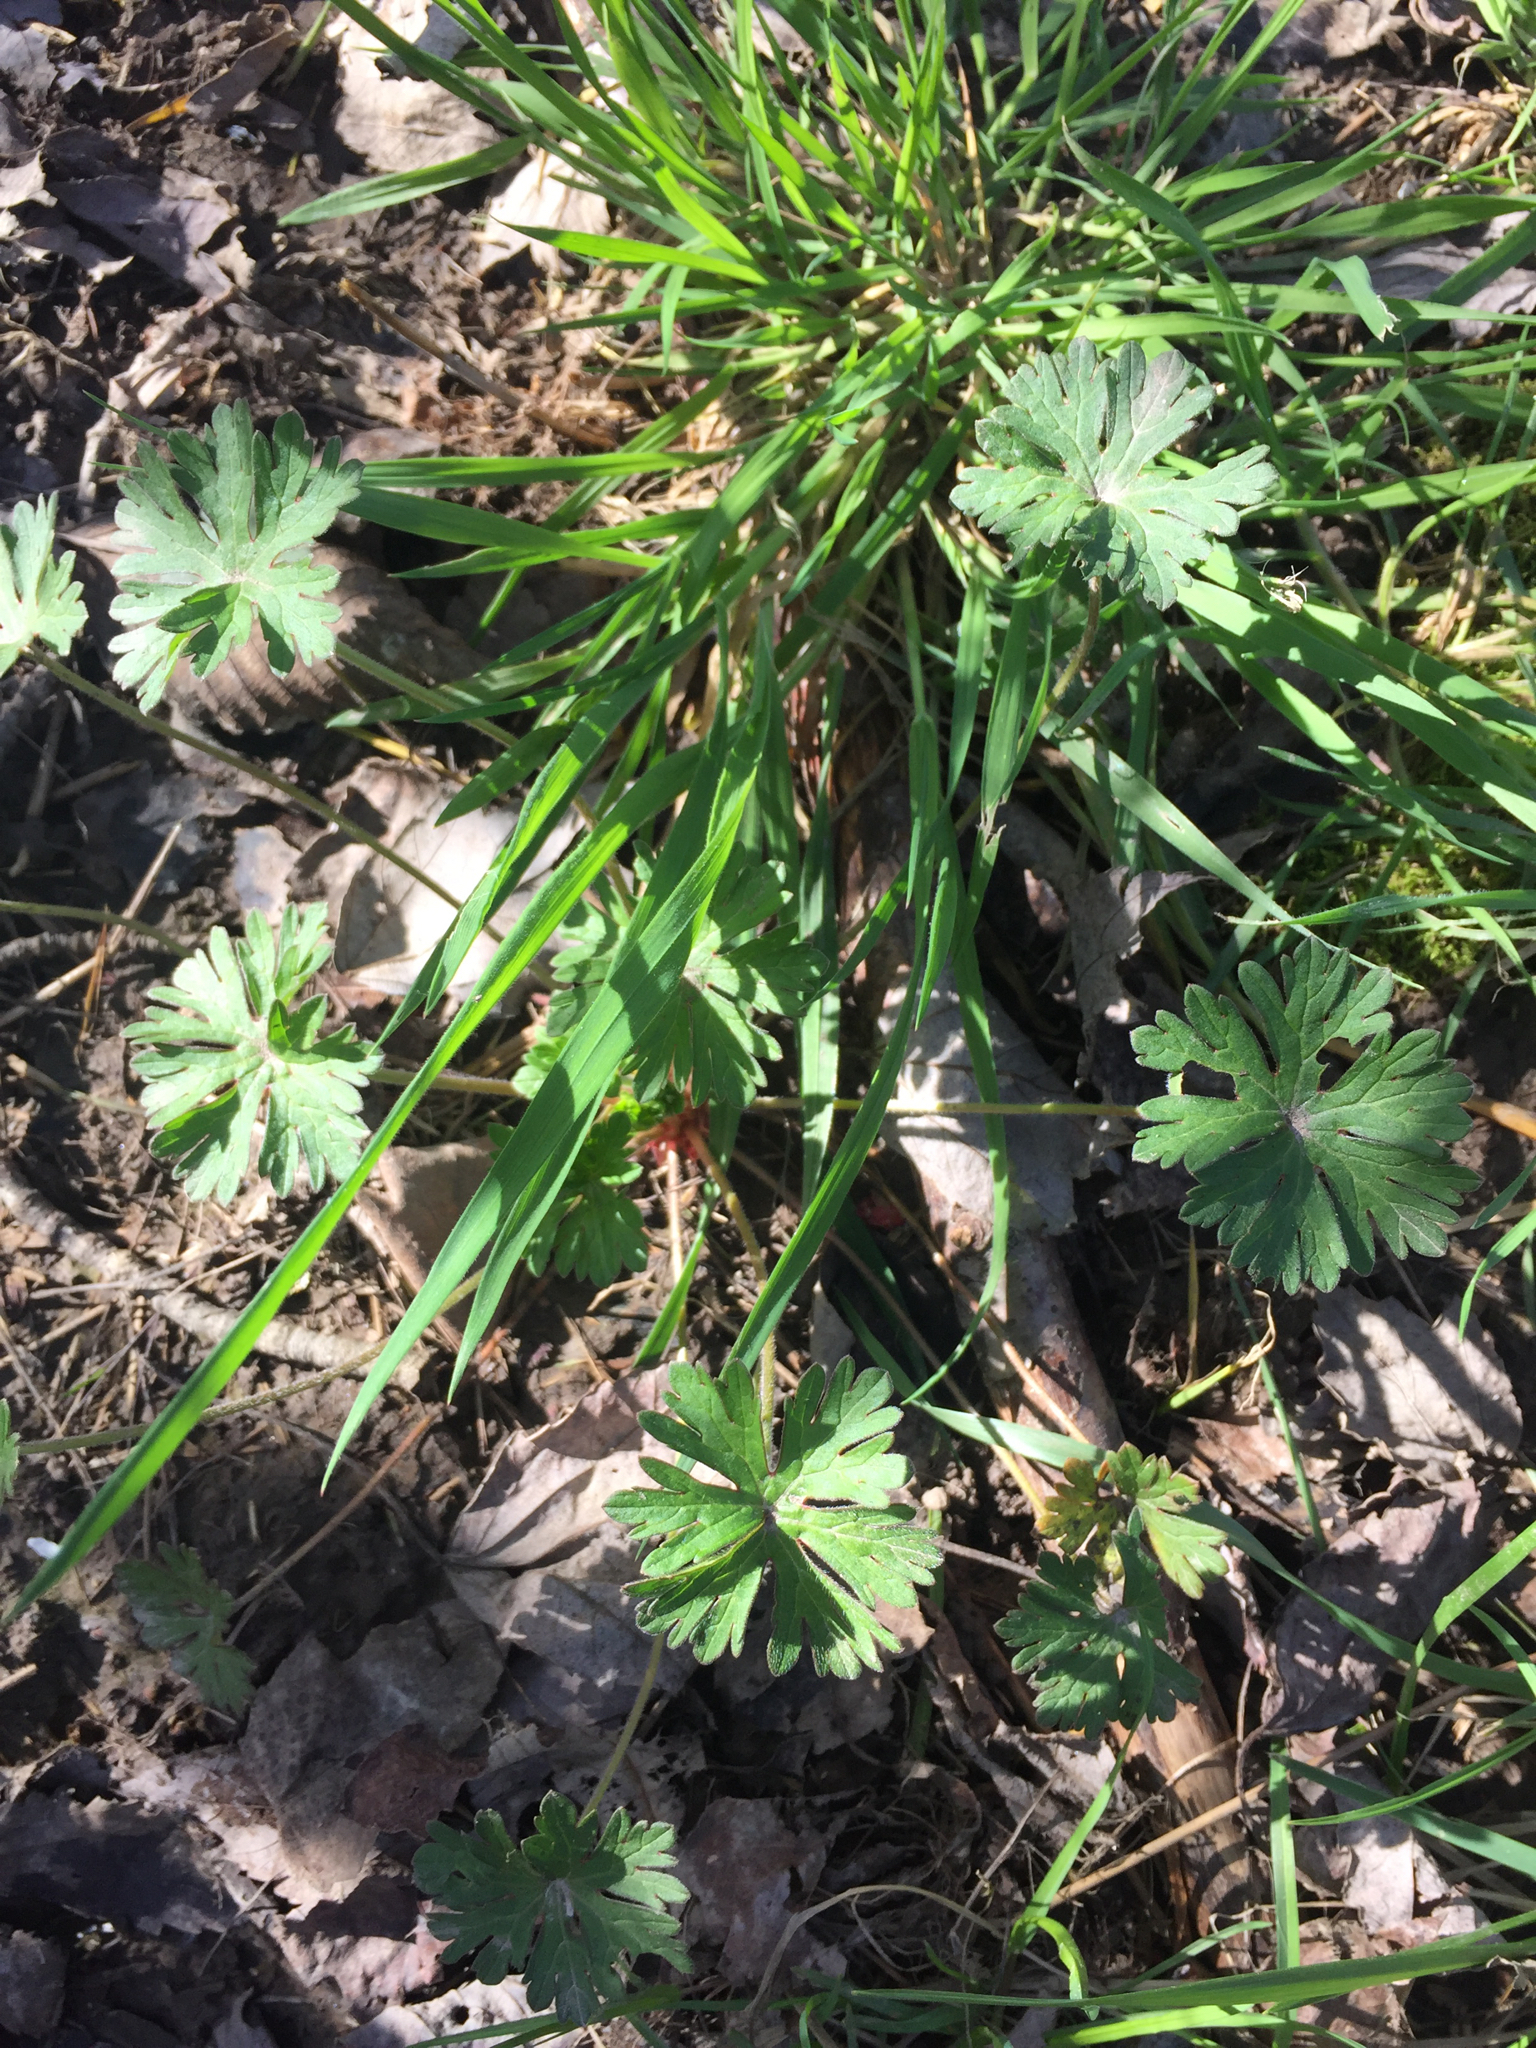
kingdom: Plantae
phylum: Tracheophyta
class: Magnoliopsida
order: Geraniales
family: Geraniaceae
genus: Geranium
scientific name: Geranium molle
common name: Dove's-foot crane's-bill
